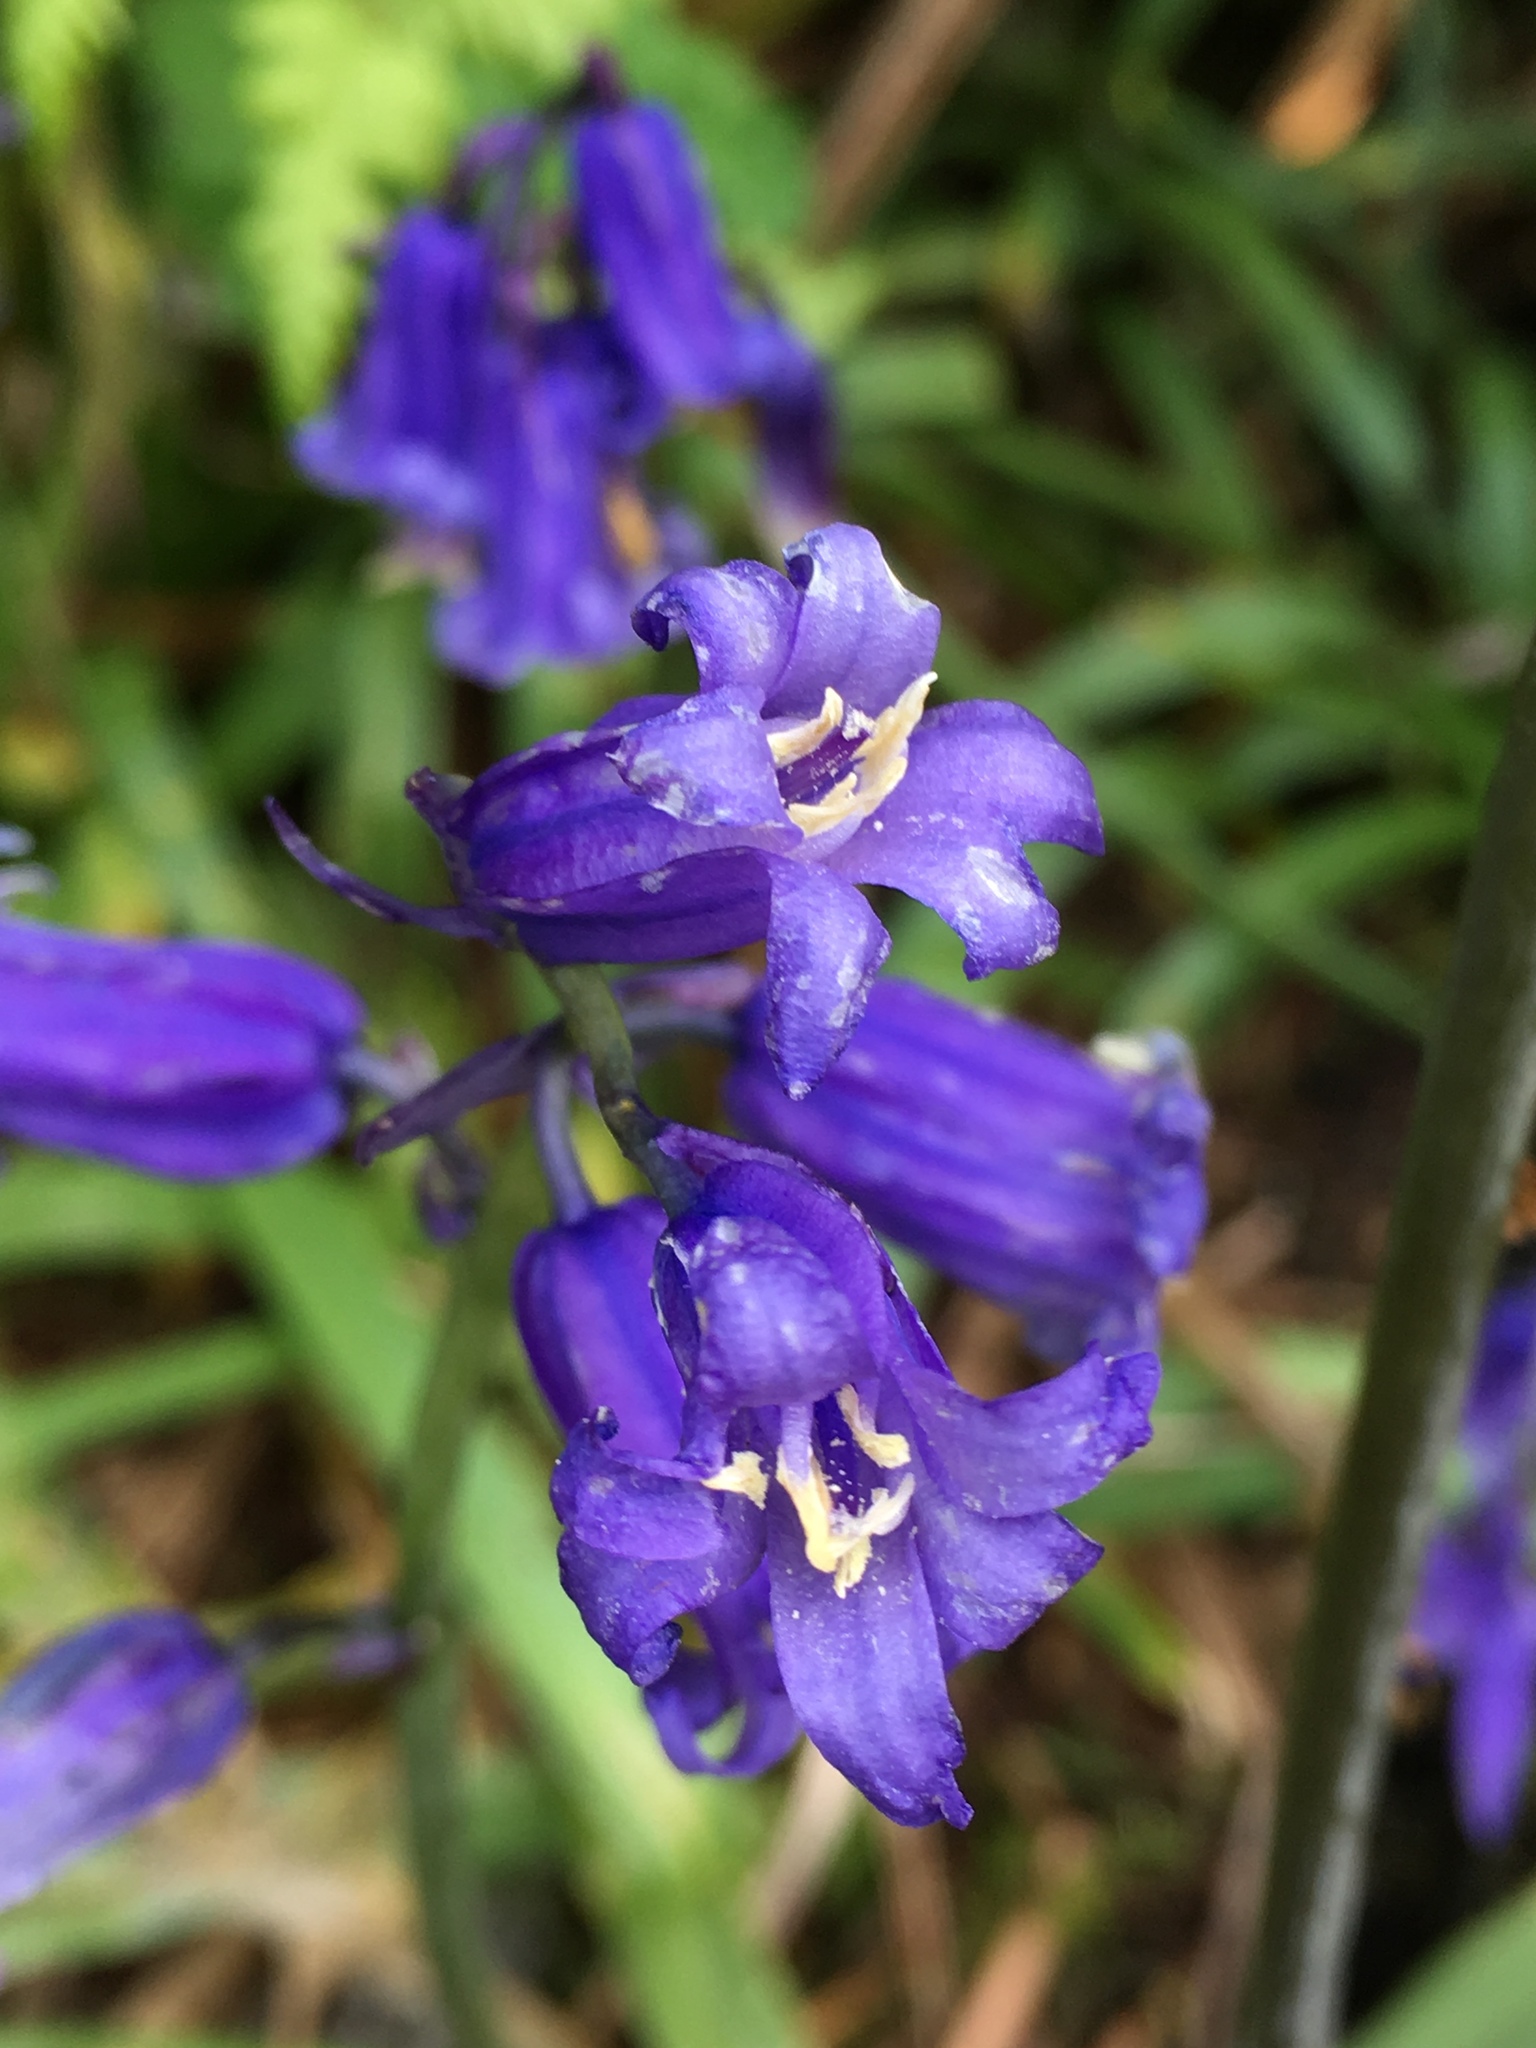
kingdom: Plantae
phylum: Tracheophyta
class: Liliopsida
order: Asparagales
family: Asparagaceae
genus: Hyacinthoides
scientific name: Hyacinthoides massartiana
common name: Hyacinthoides
